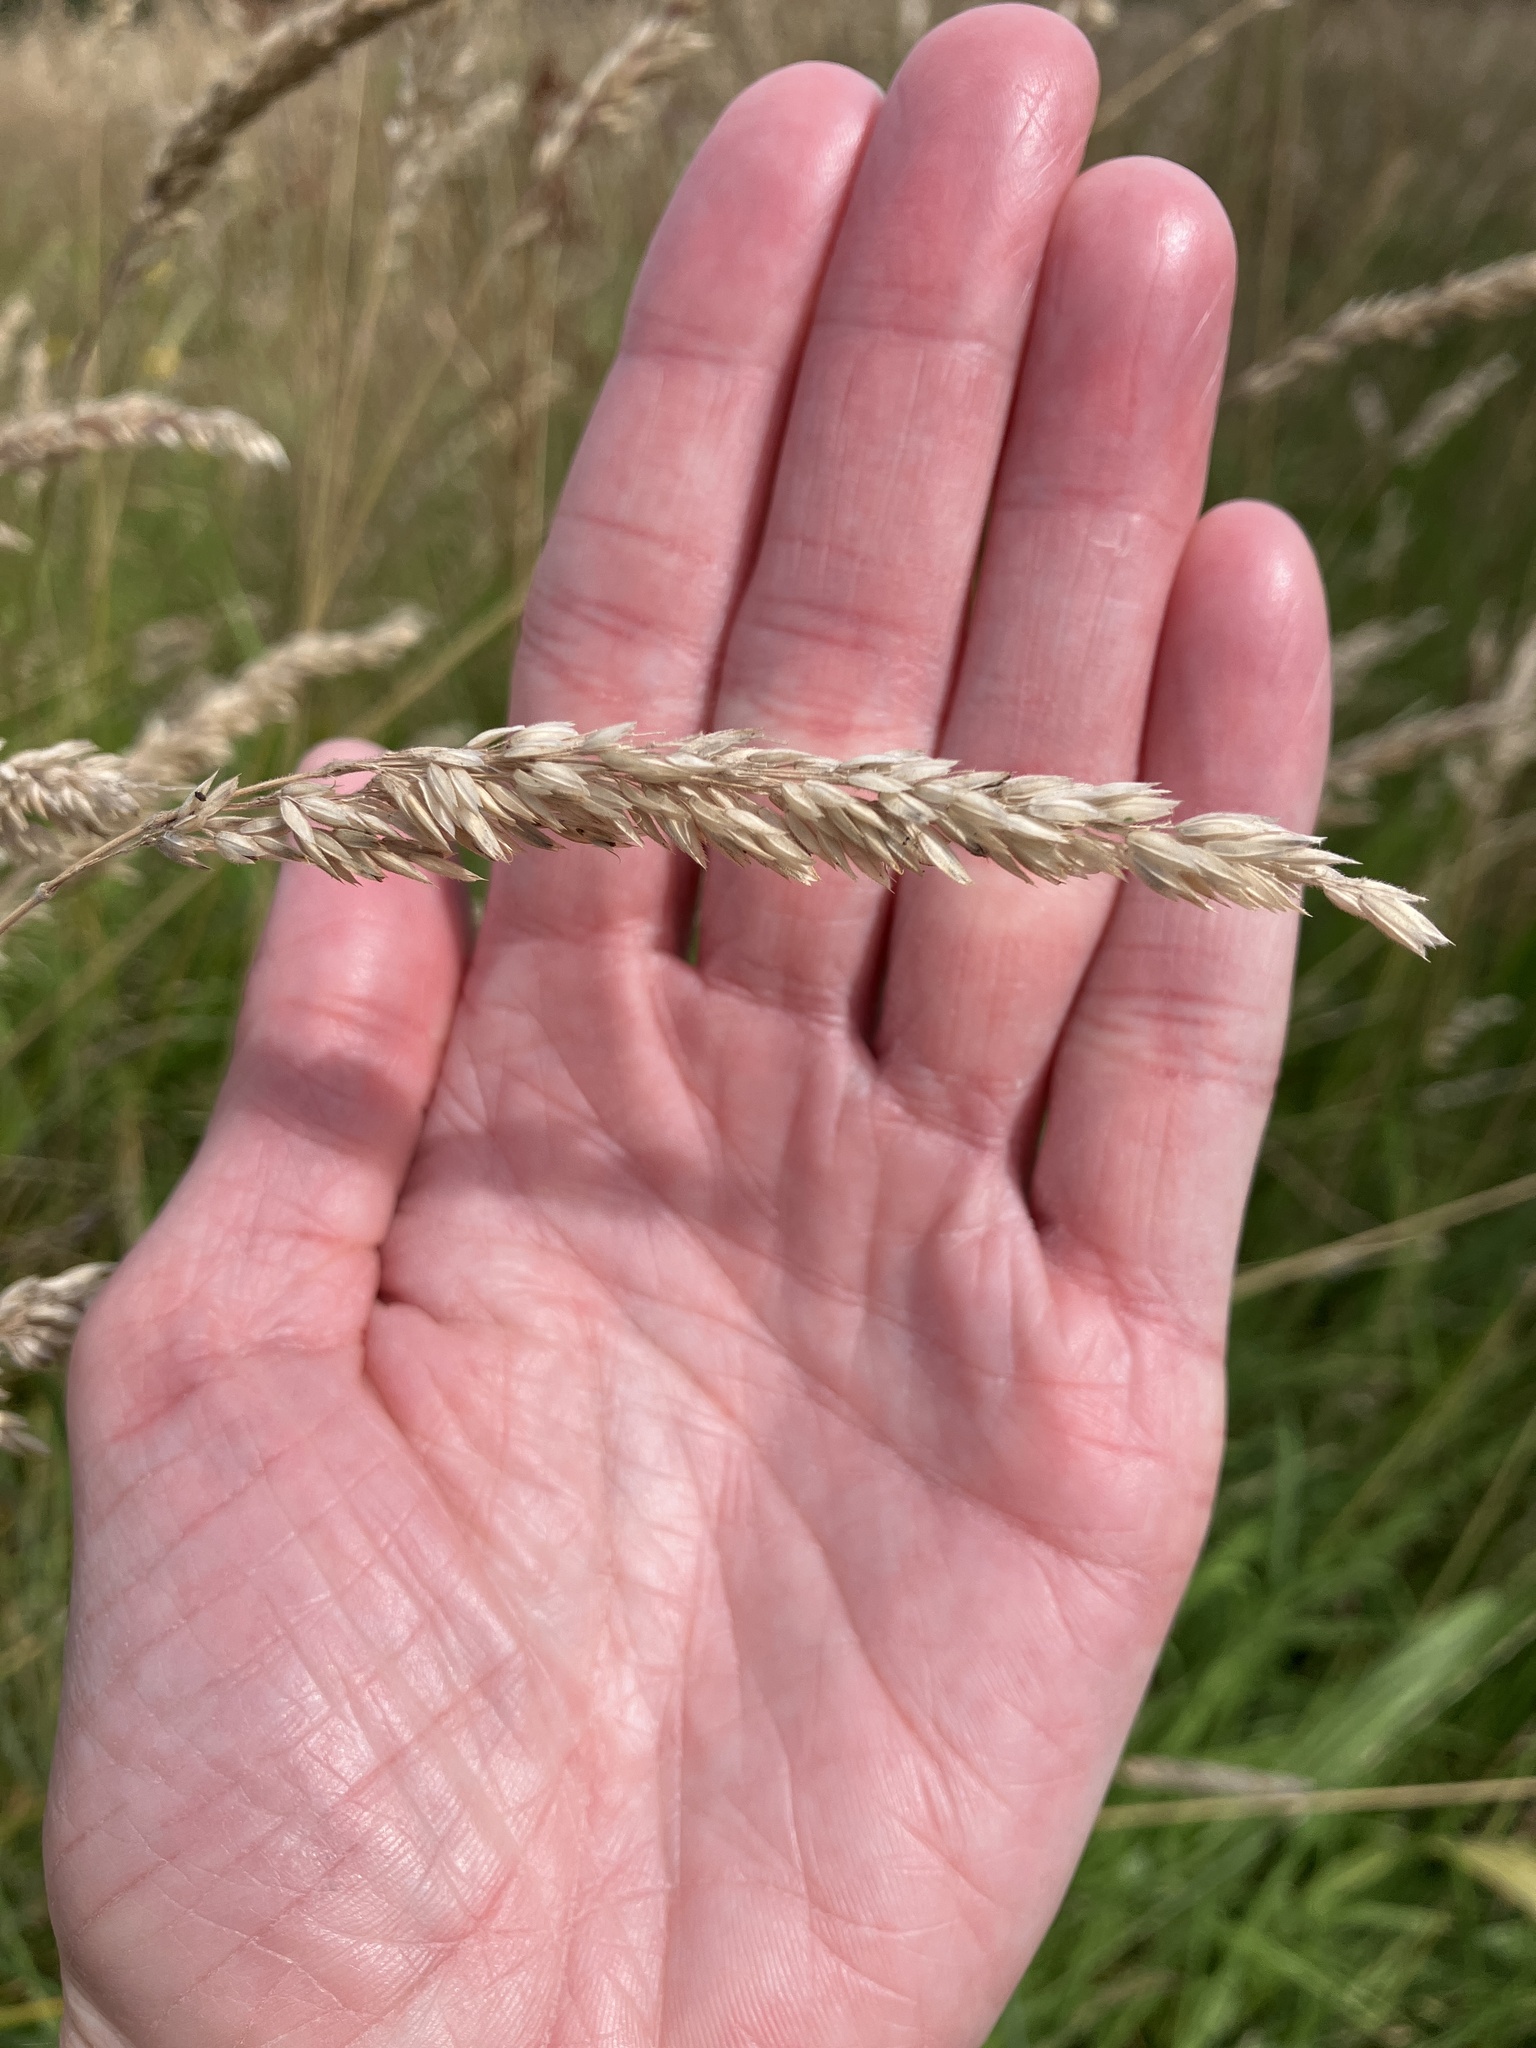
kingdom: Plantae
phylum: Tracheophyta
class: Liliopsida
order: Poales
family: Poaceae
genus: Holcus
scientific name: Holcus lanatus
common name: Yorkshire-fog
